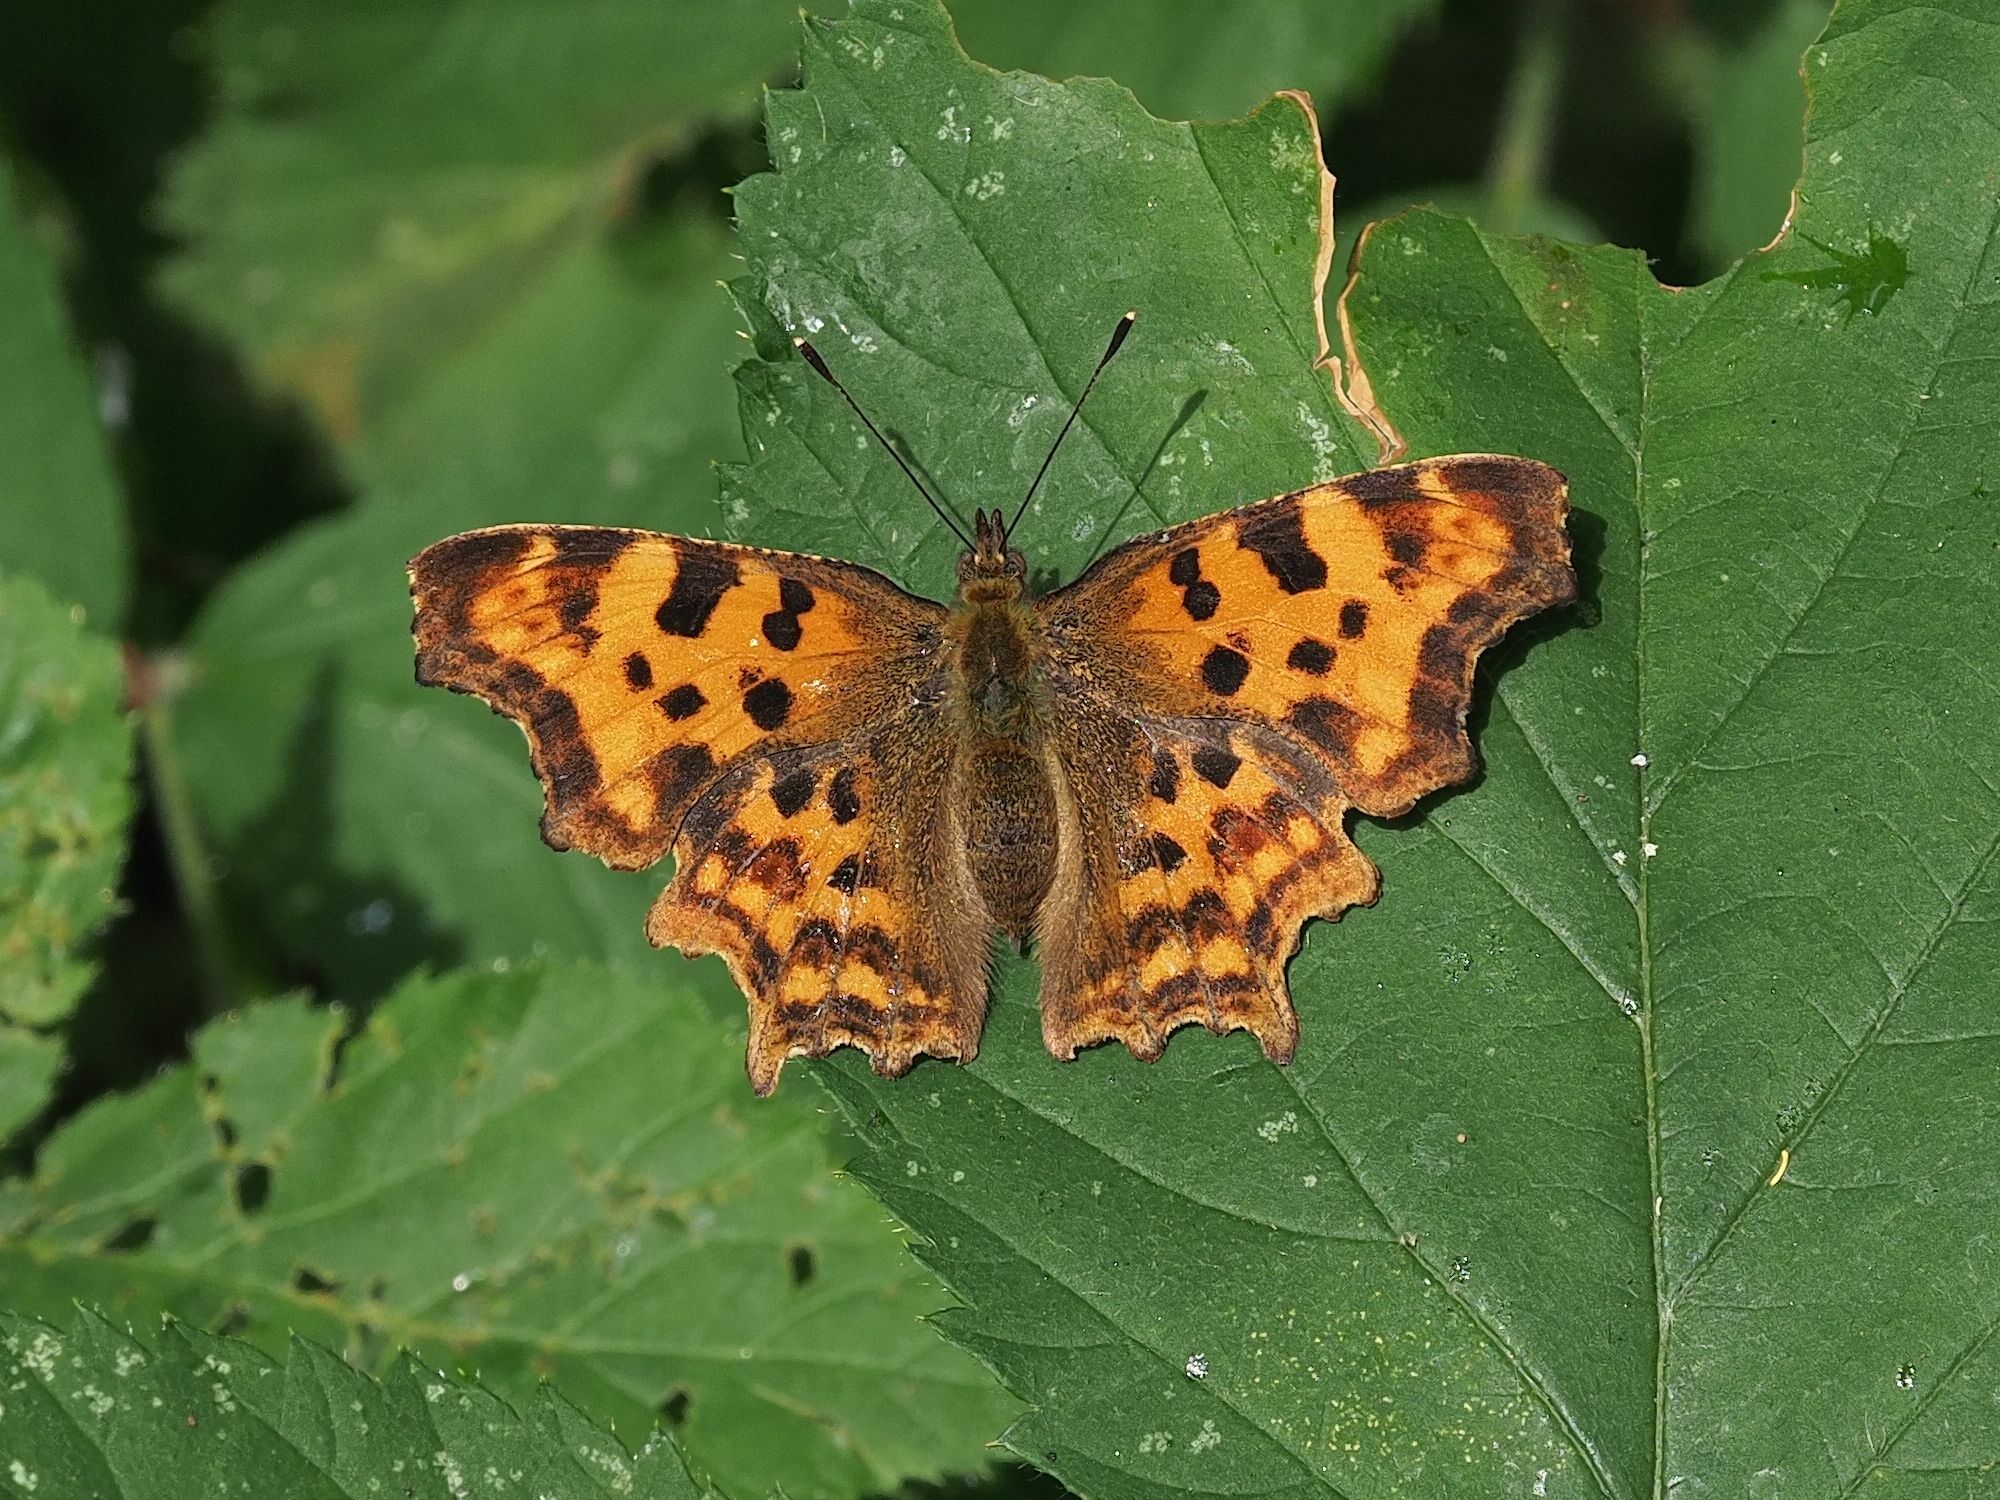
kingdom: Animalia
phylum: Arthropoda
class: Insecta
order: Lepidoptera
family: Nymphalidae
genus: Polygonia
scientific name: Polygonia c-album
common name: Comma
